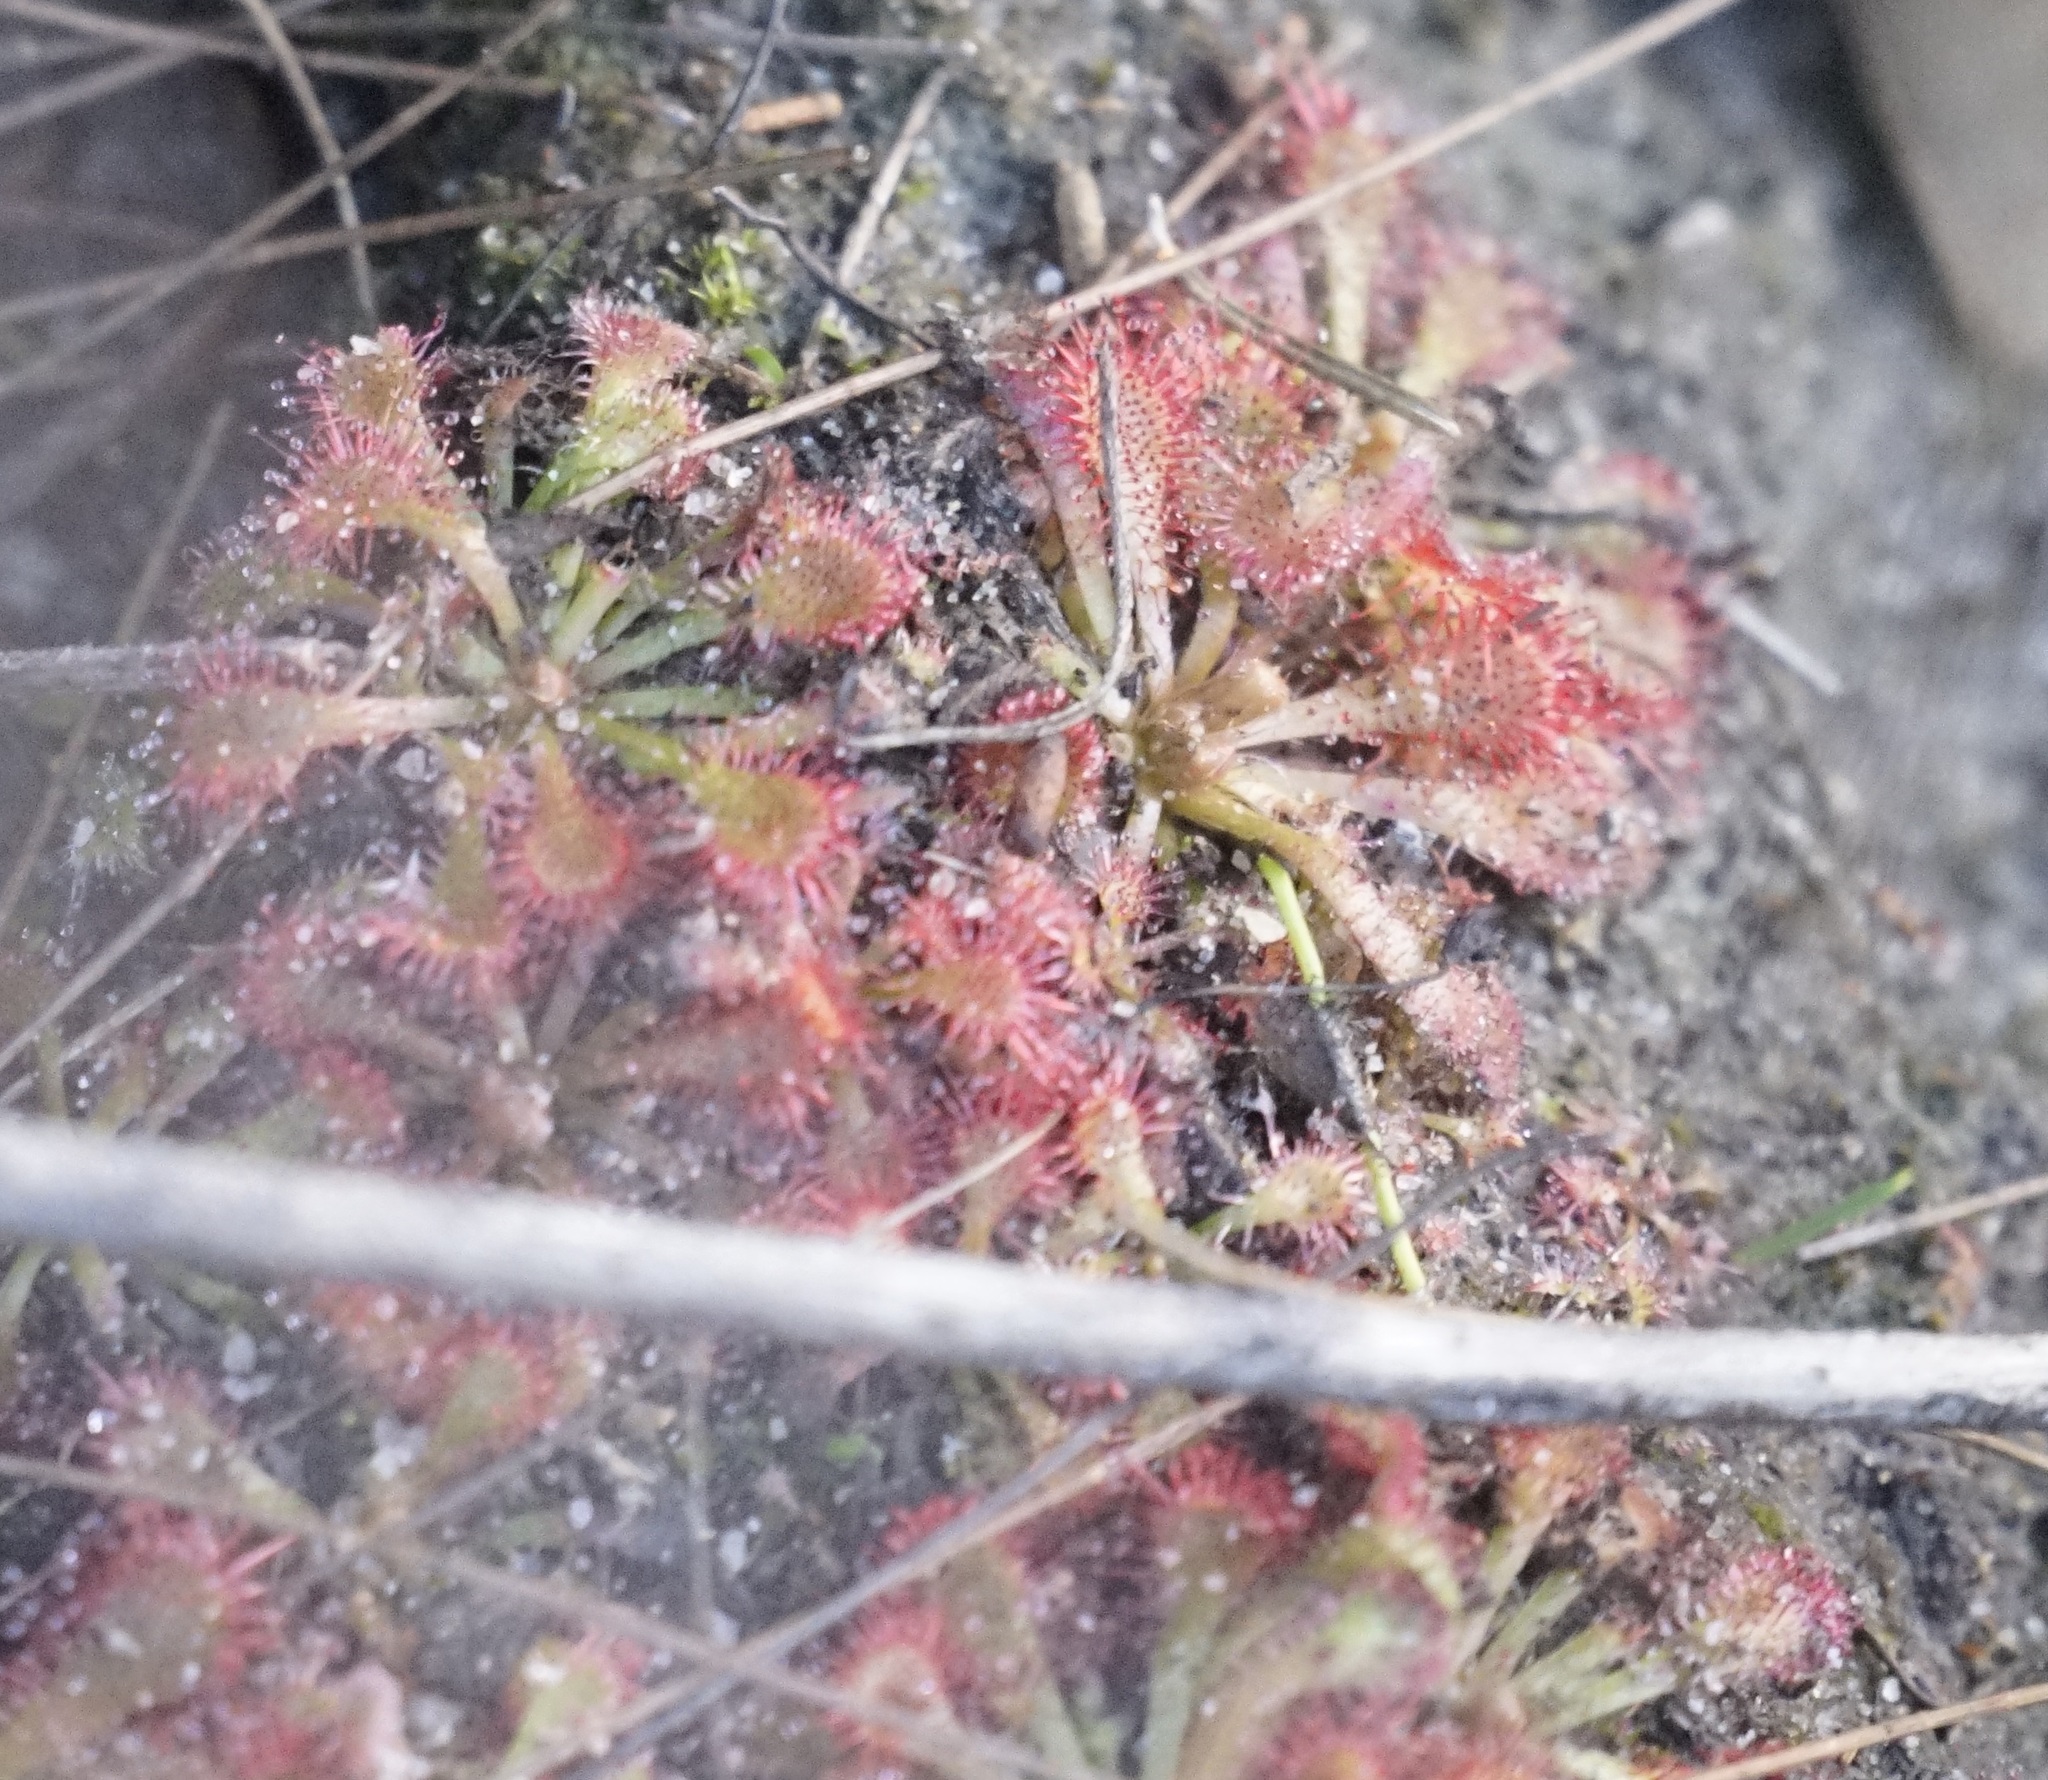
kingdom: Plantae
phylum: Tracheophyta
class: Magnoliopsida
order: Caryophyllales
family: Droseraceae
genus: Drosera
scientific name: Drosera spatulata
